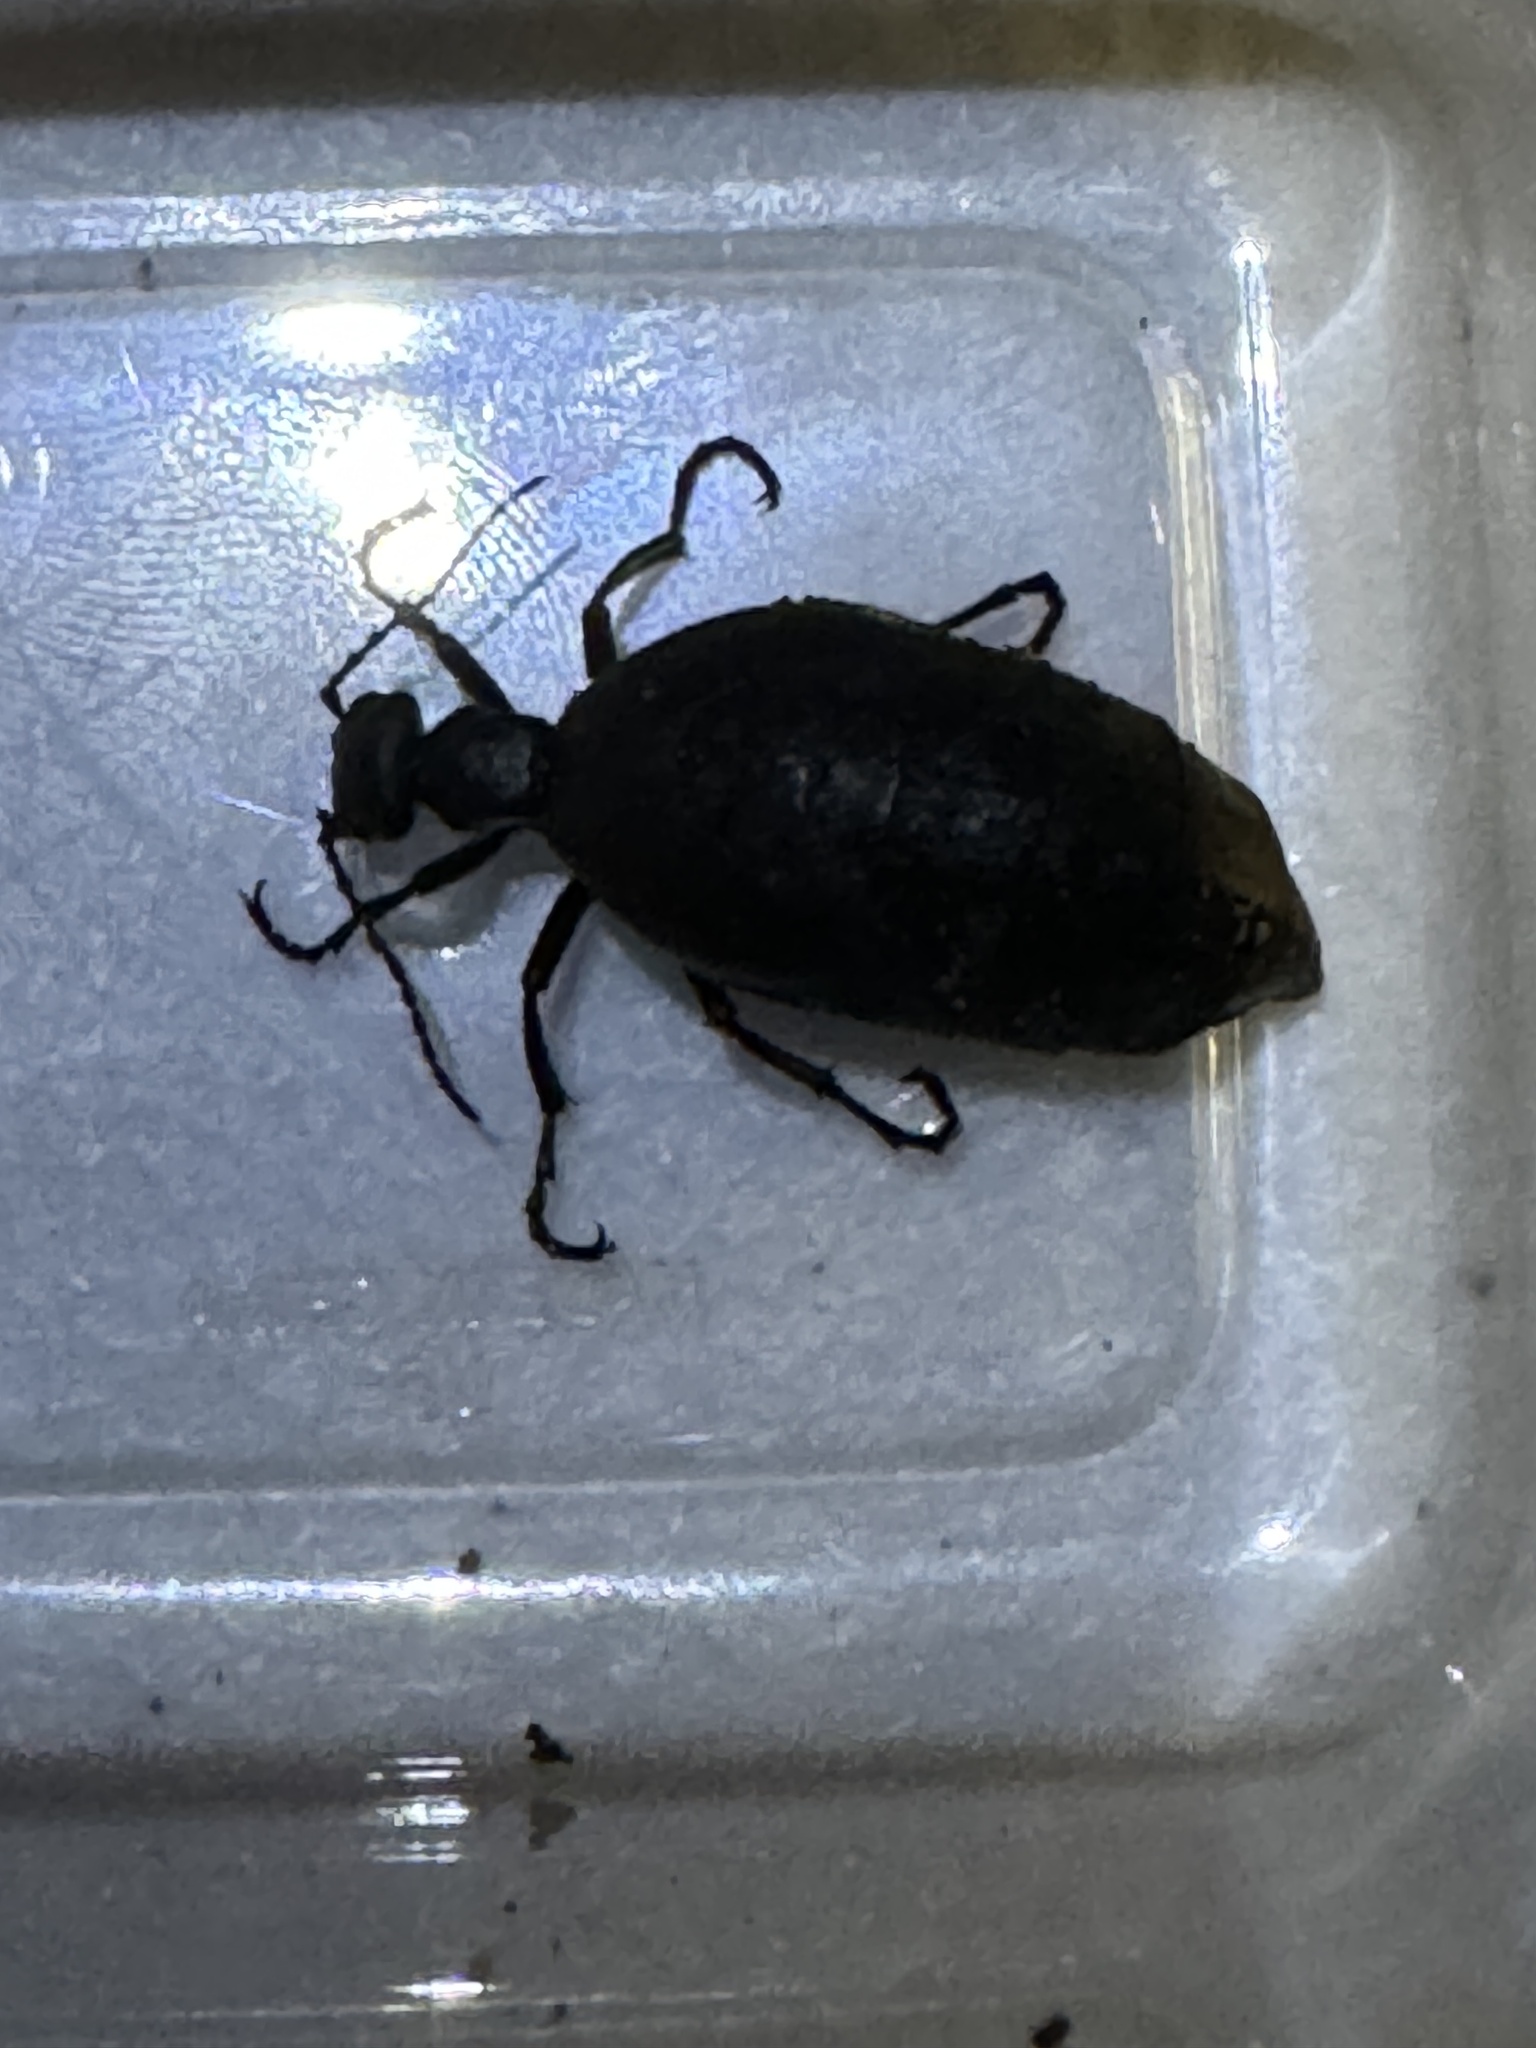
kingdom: Animalia
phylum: Arthropoda
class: Insecta
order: Coleoptera
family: Meloidae
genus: Meloe
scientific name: Meloe americanus
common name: Buttercup oil beetle
